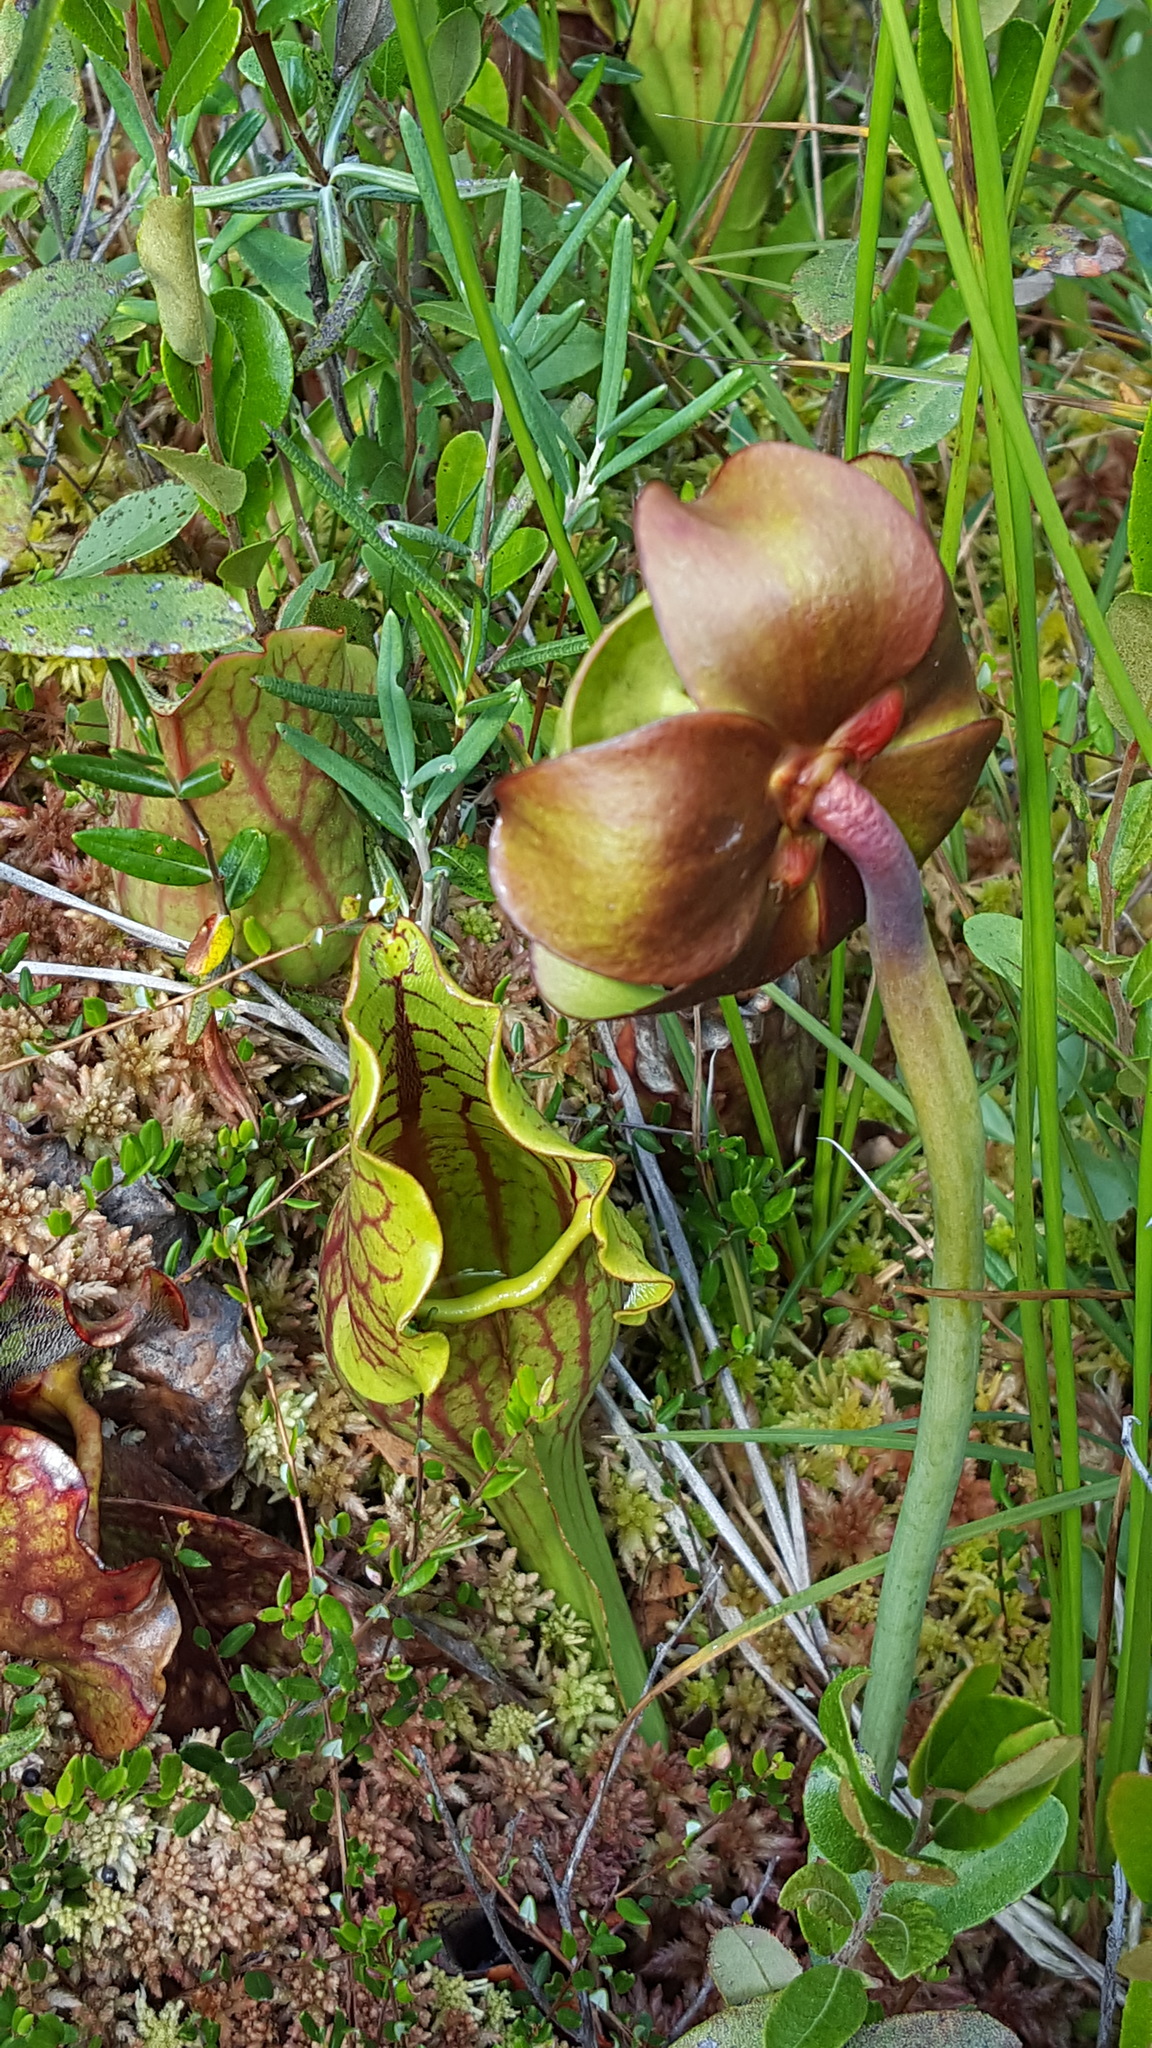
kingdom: Plantae
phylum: Tracheophyta
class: Magnoliopsida
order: Ericales
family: Sarraceniaceae
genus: Sarracenia
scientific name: Sarracenia purpurea
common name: Pitcherplant
